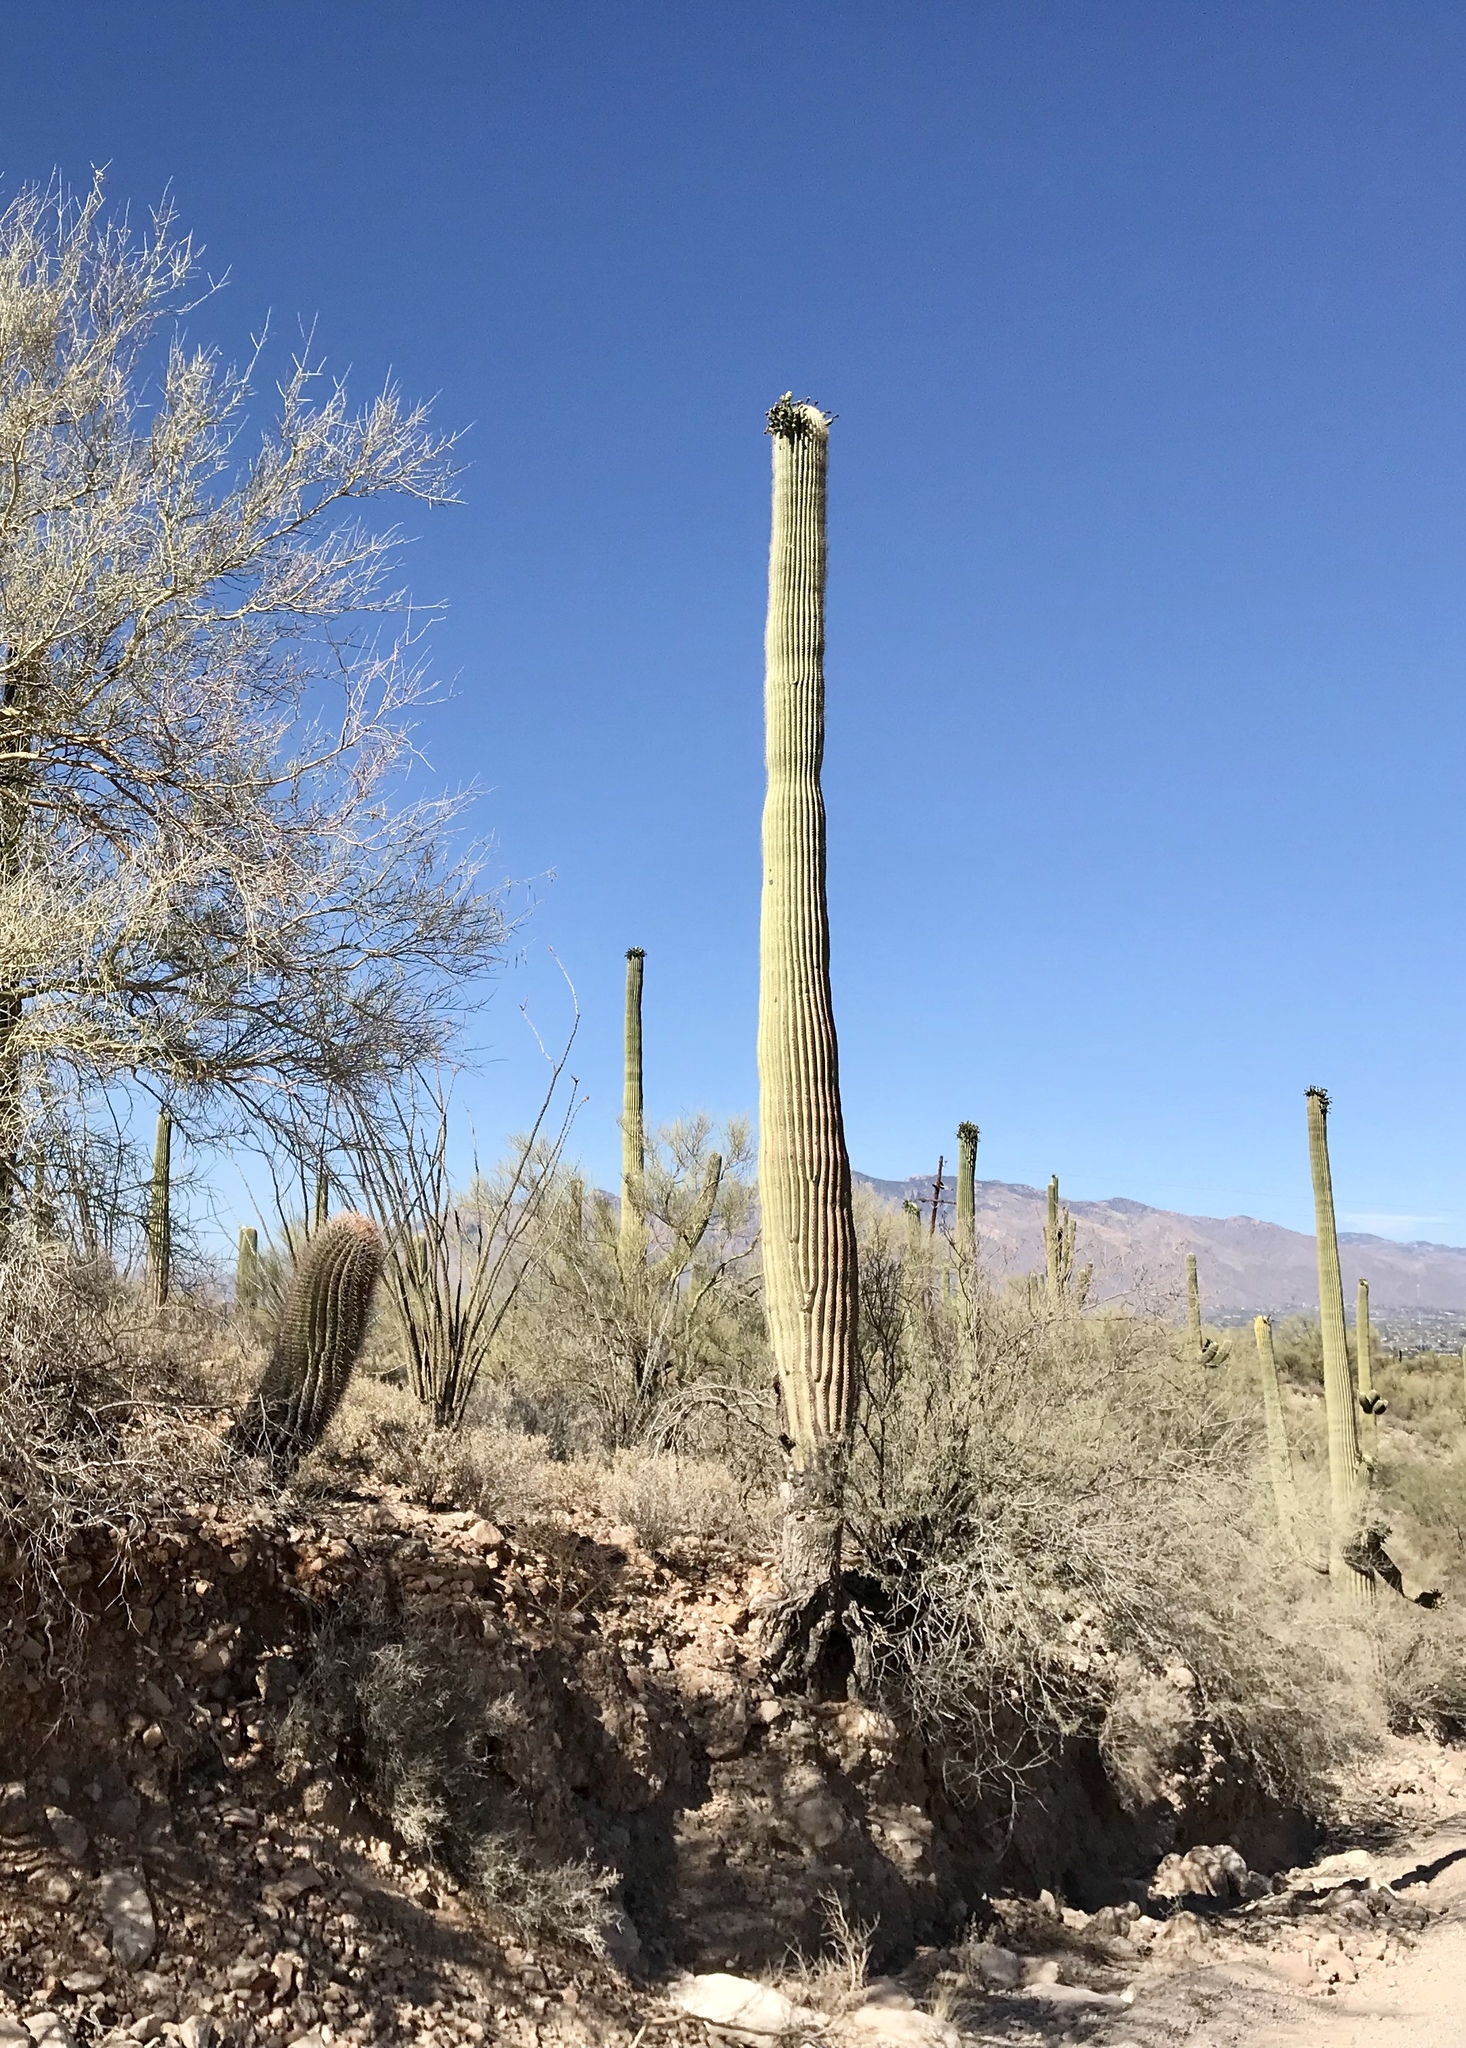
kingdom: Plantae
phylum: Tracheophyta
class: Magnoliopsida
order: Caryophyllales
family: Cactaceae
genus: Carnegiea
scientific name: Carnegiea gigantea
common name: Saguaro
